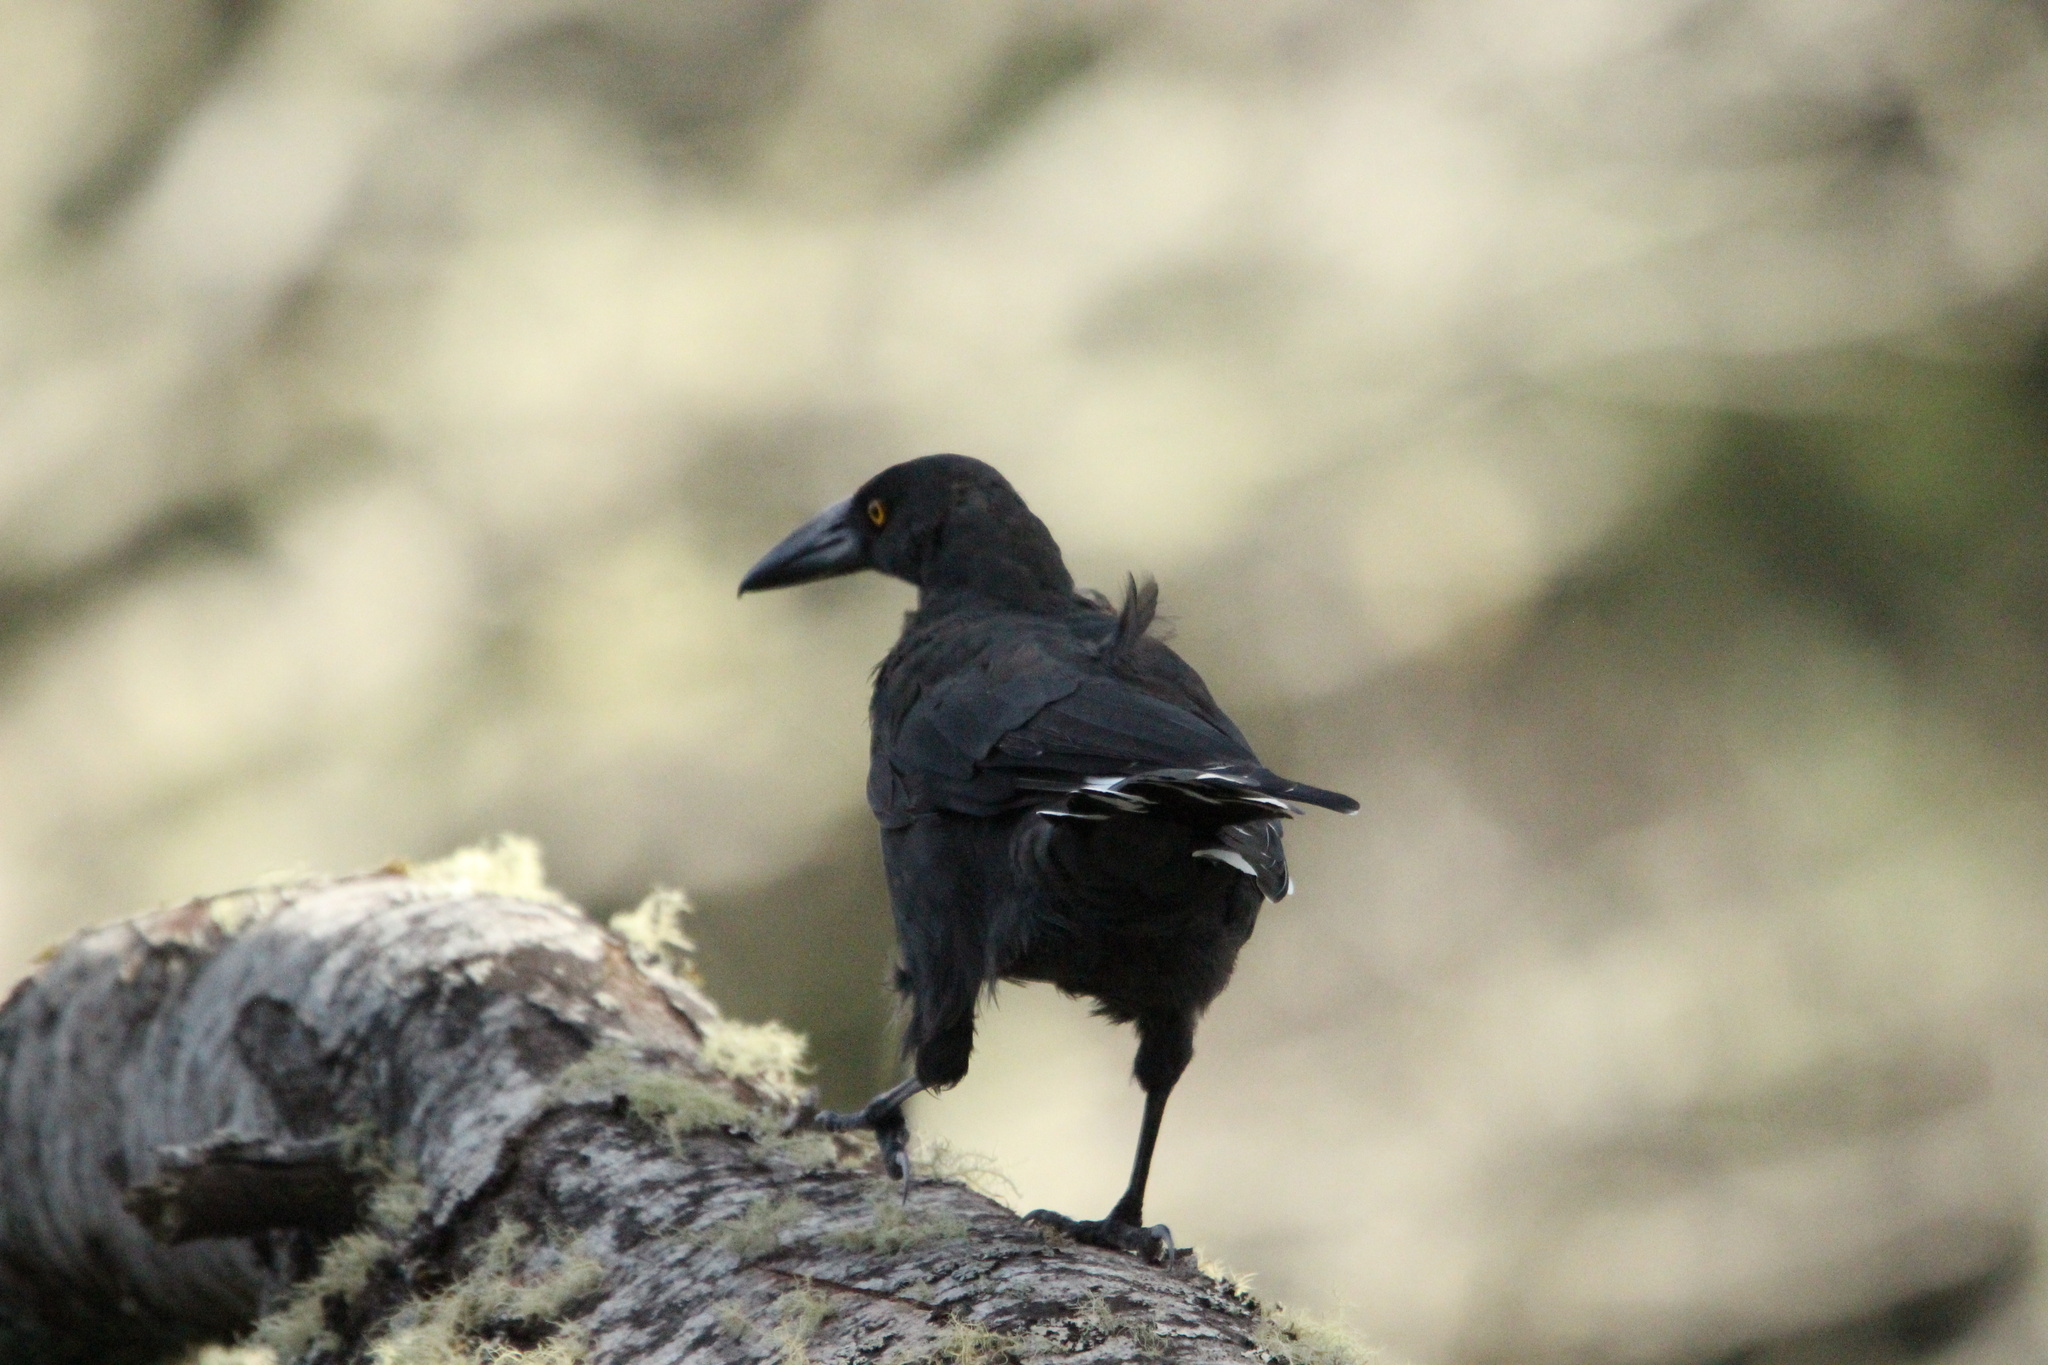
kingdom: Animalia
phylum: Chordata
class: Aves
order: Passeriformes
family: Cracticidae
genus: Strepera
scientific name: Strepera fuliginosa
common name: Black currawong
